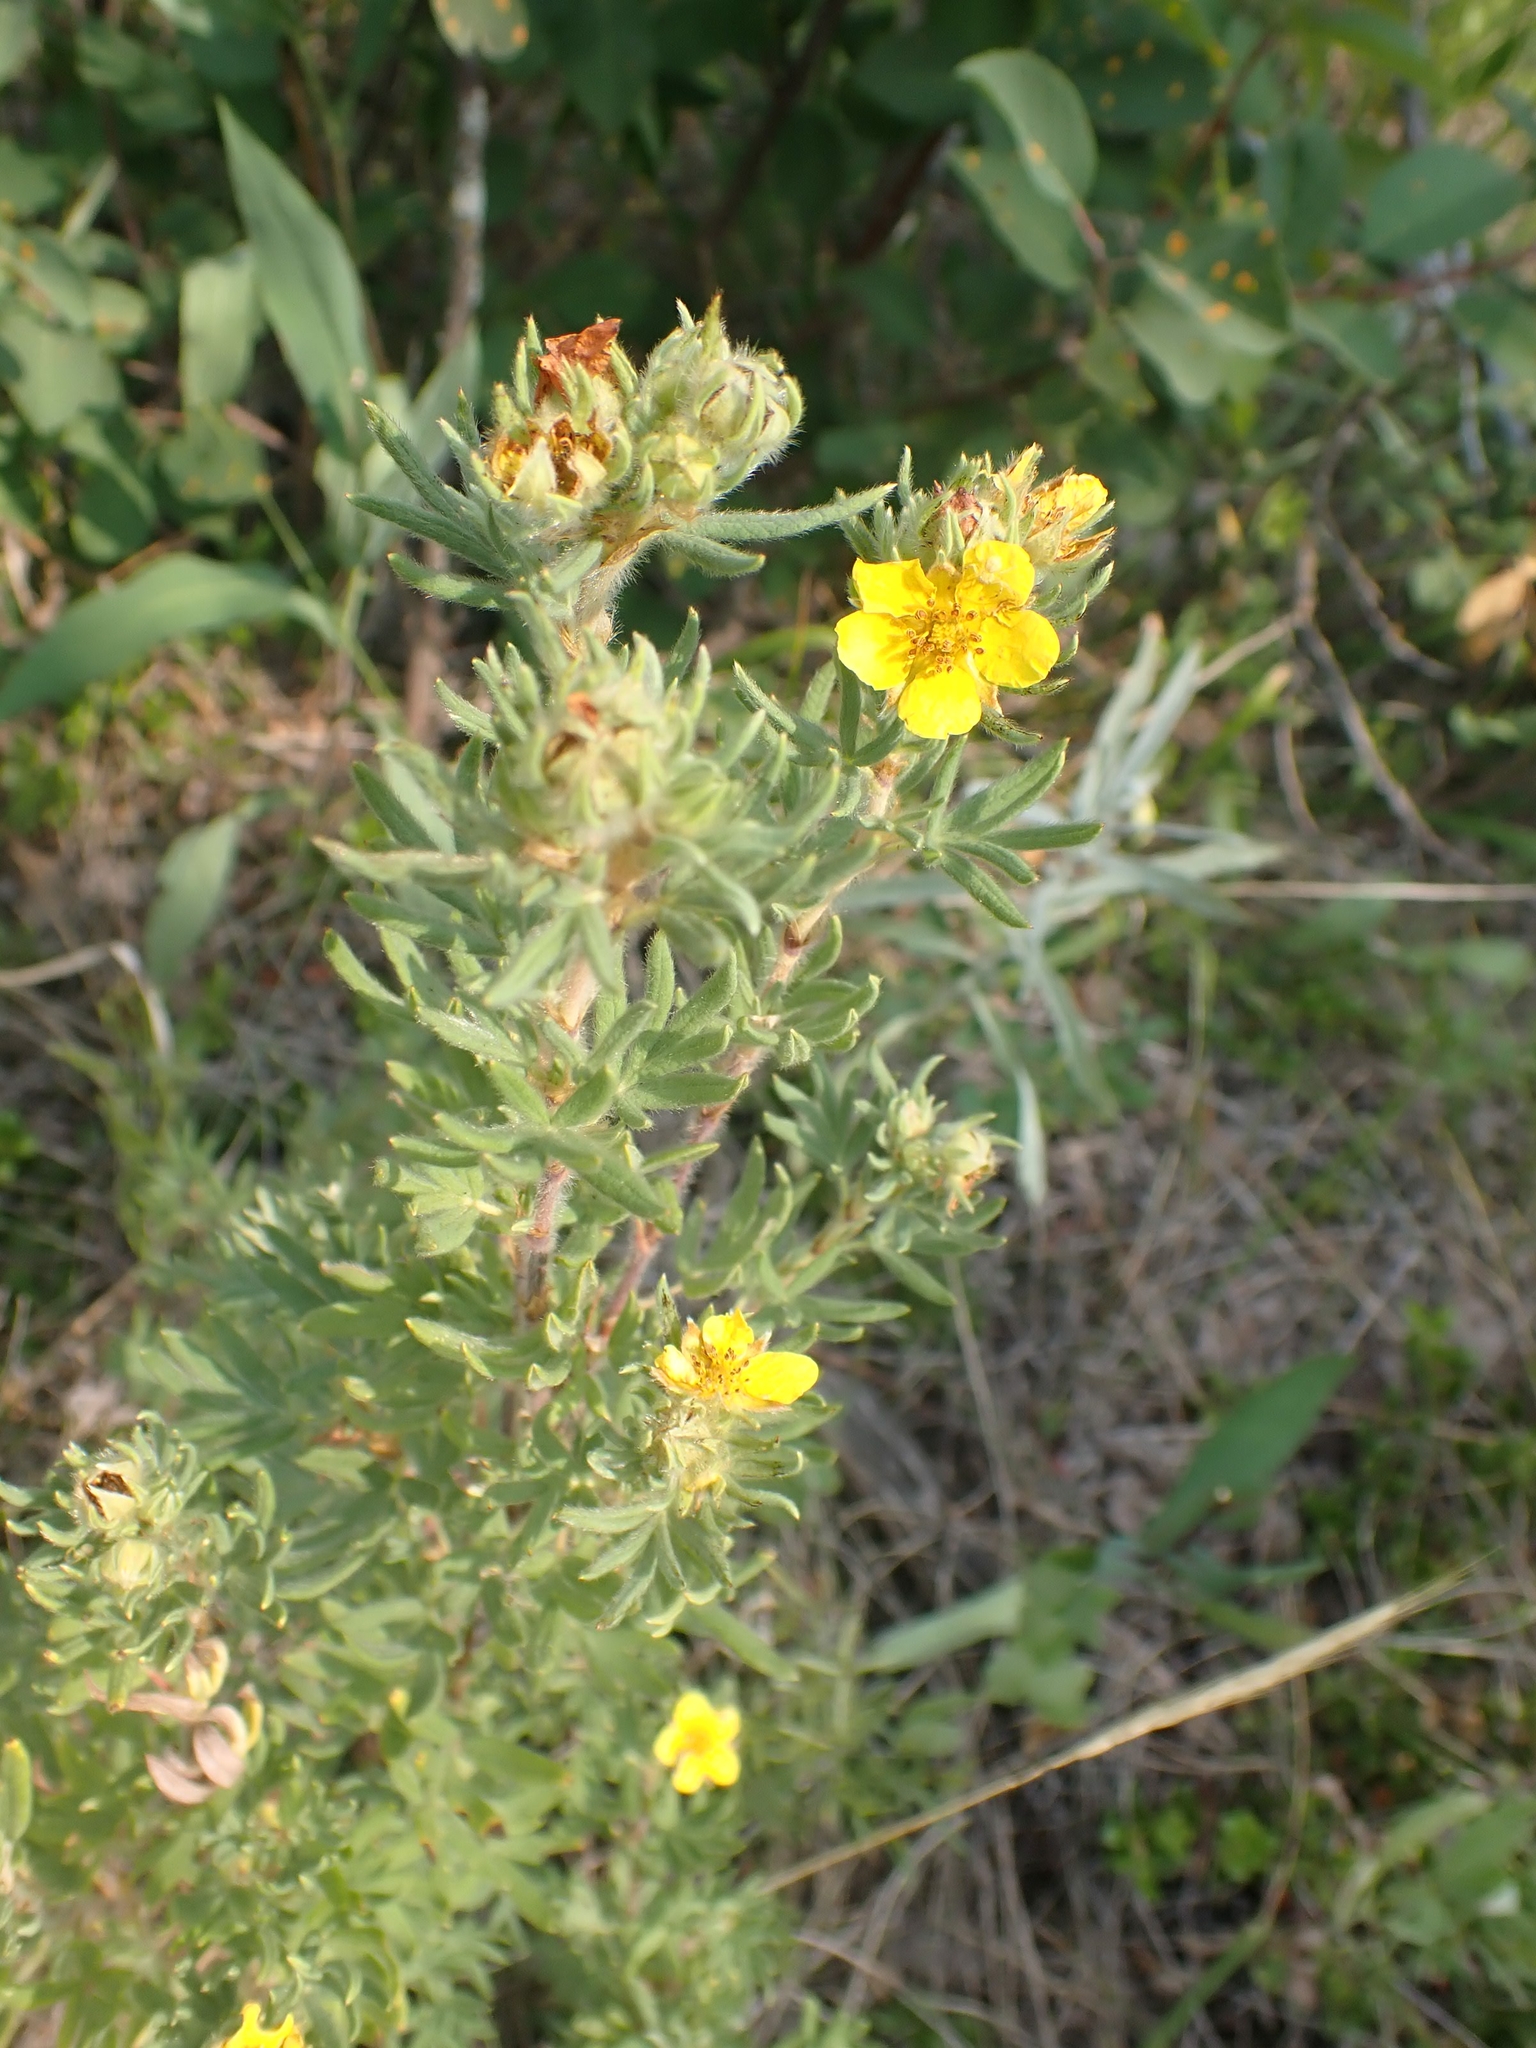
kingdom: Plantae
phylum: Tracheophyta
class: Magnoliopsida
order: Rosales
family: Rosaceae
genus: Dasiphora
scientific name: Dasiphora fruticosa
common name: Shrubby cinquefoil
